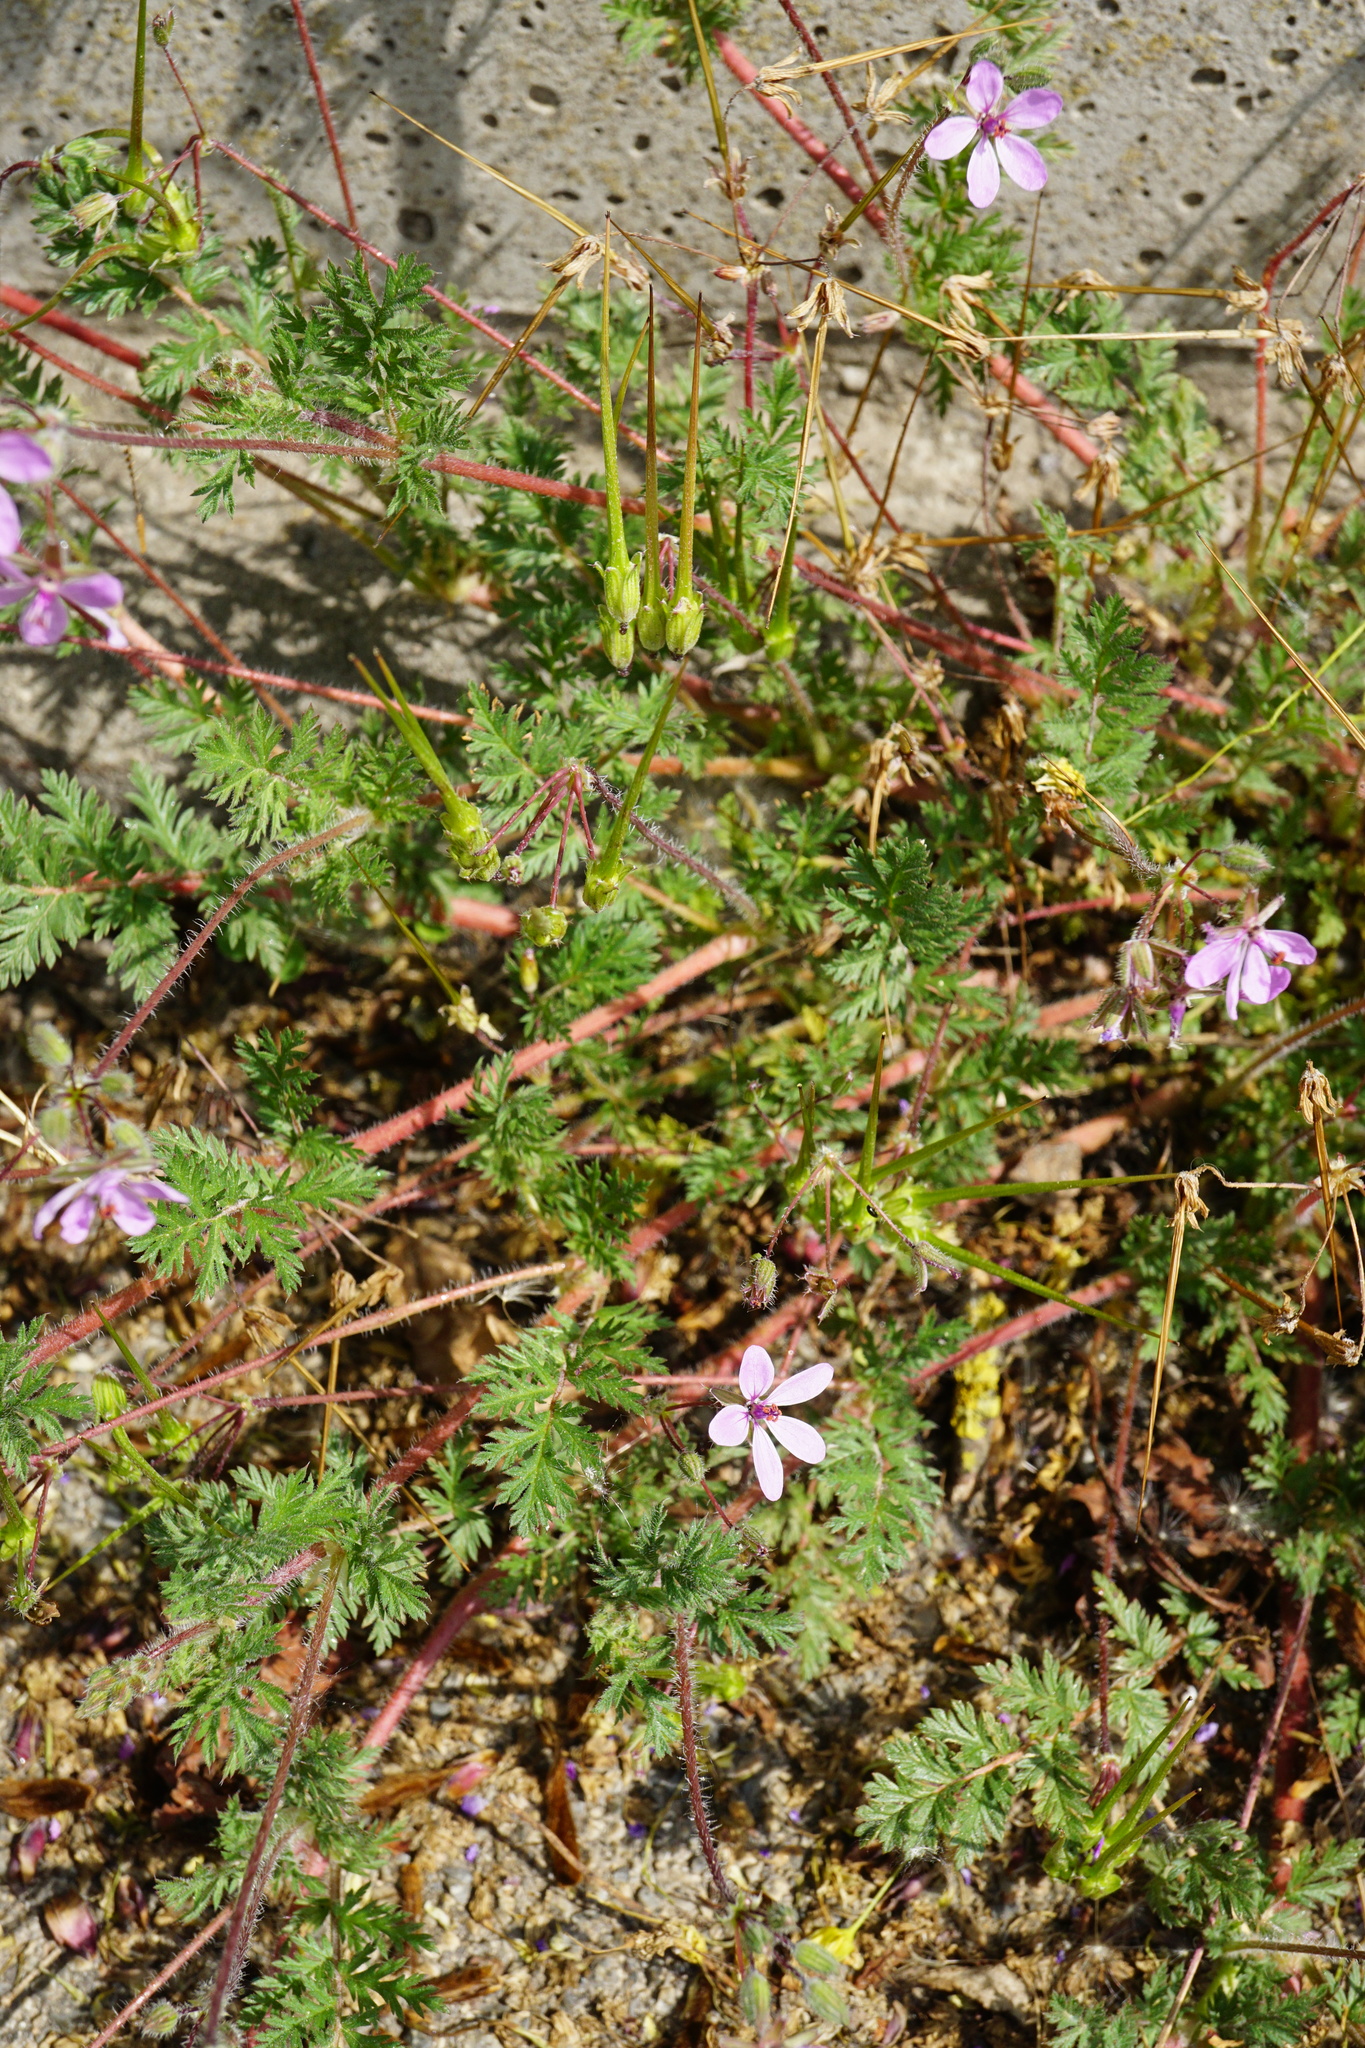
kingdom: Plantae
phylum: Tracheophyta
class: Magnoliopsida
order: Geraniales
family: Geraniaceae
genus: Erodium
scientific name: Erodium cicutarium
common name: Common stork's-bill
